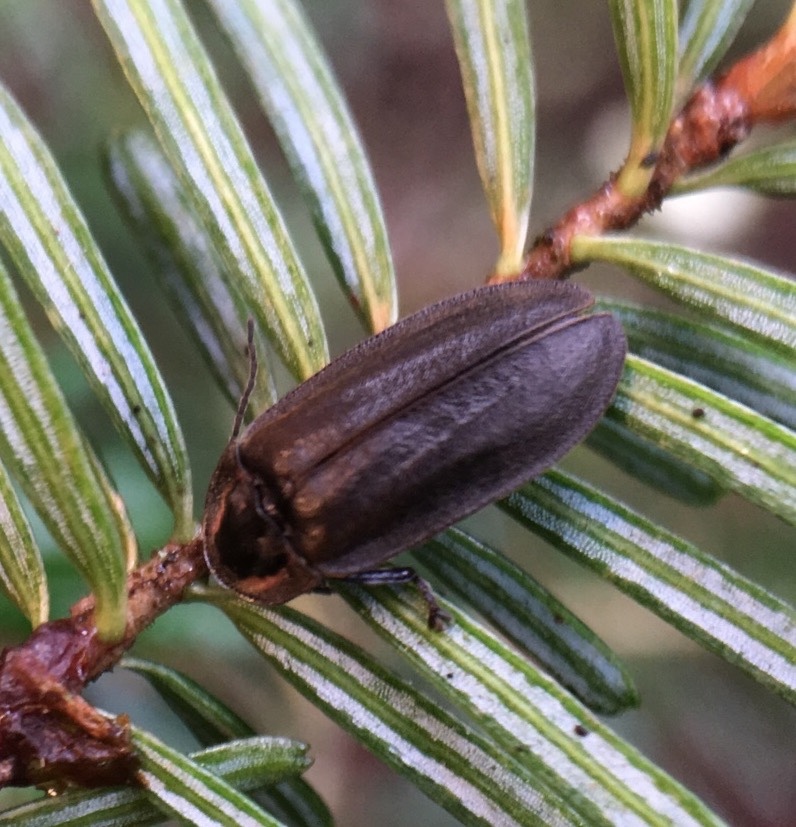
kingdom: Animalia
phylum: Arthropoda
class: Insecta
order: Coleoptera
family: Lampyridae
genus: Photinus
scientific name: Photinus corrusca
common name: Winter firefly
